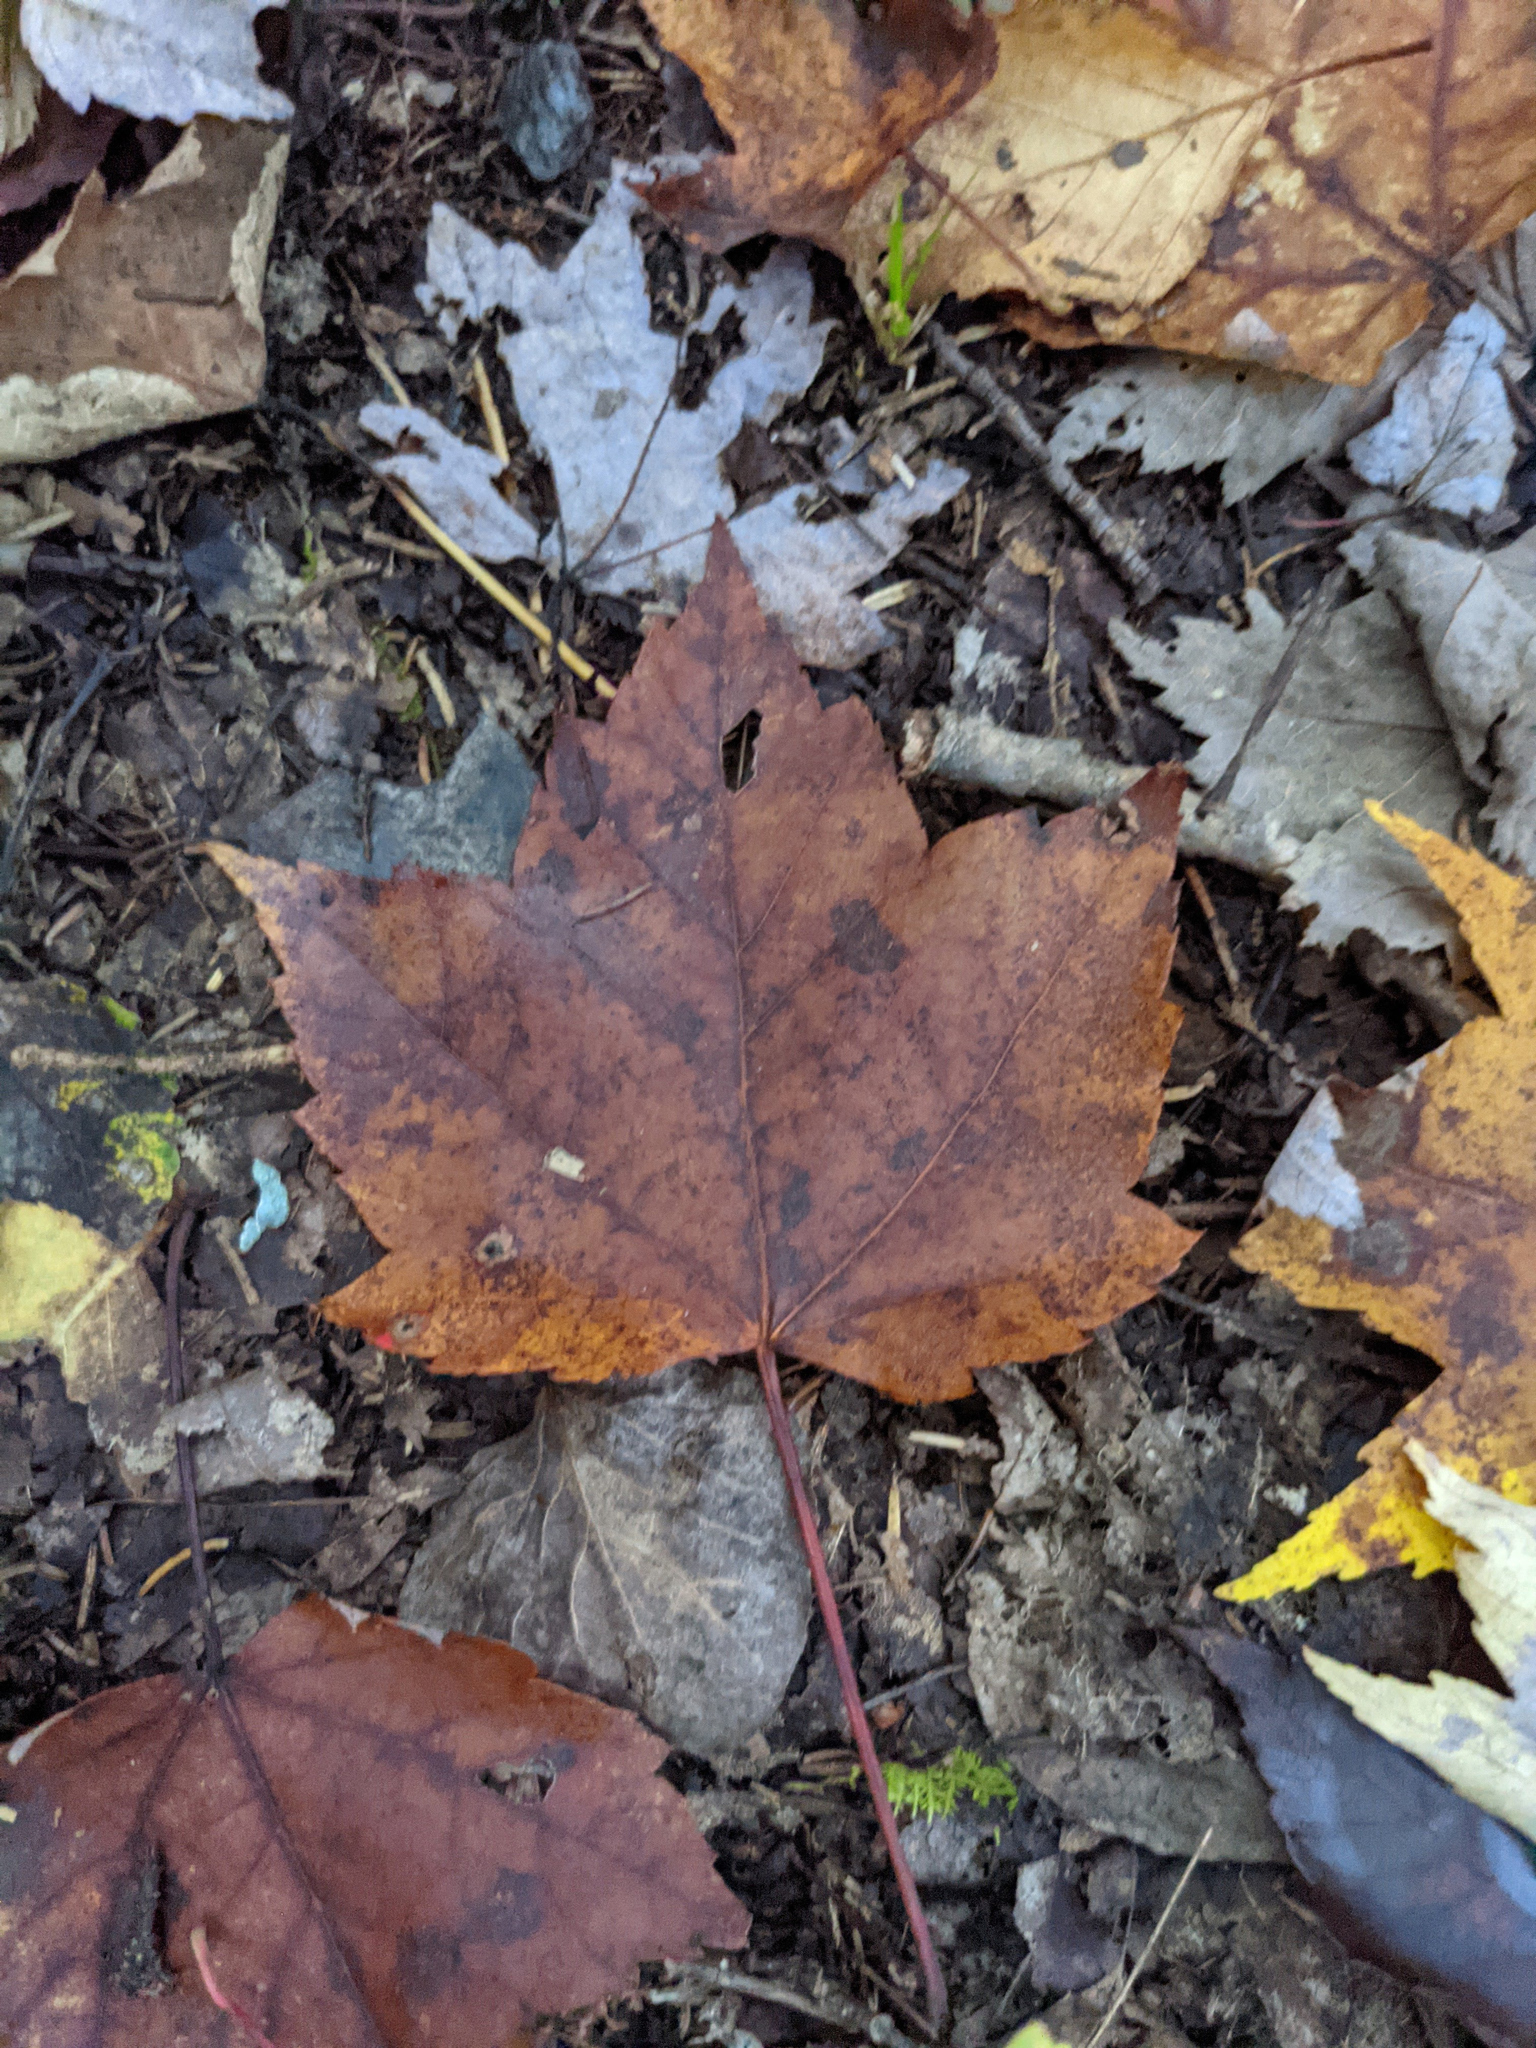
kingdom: Plantae
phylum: Tracheophyta
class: Magnoliopsida
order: Sapindales
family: Sapindaceae
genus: Acer
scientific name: Acer rubrum
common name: Red maple
